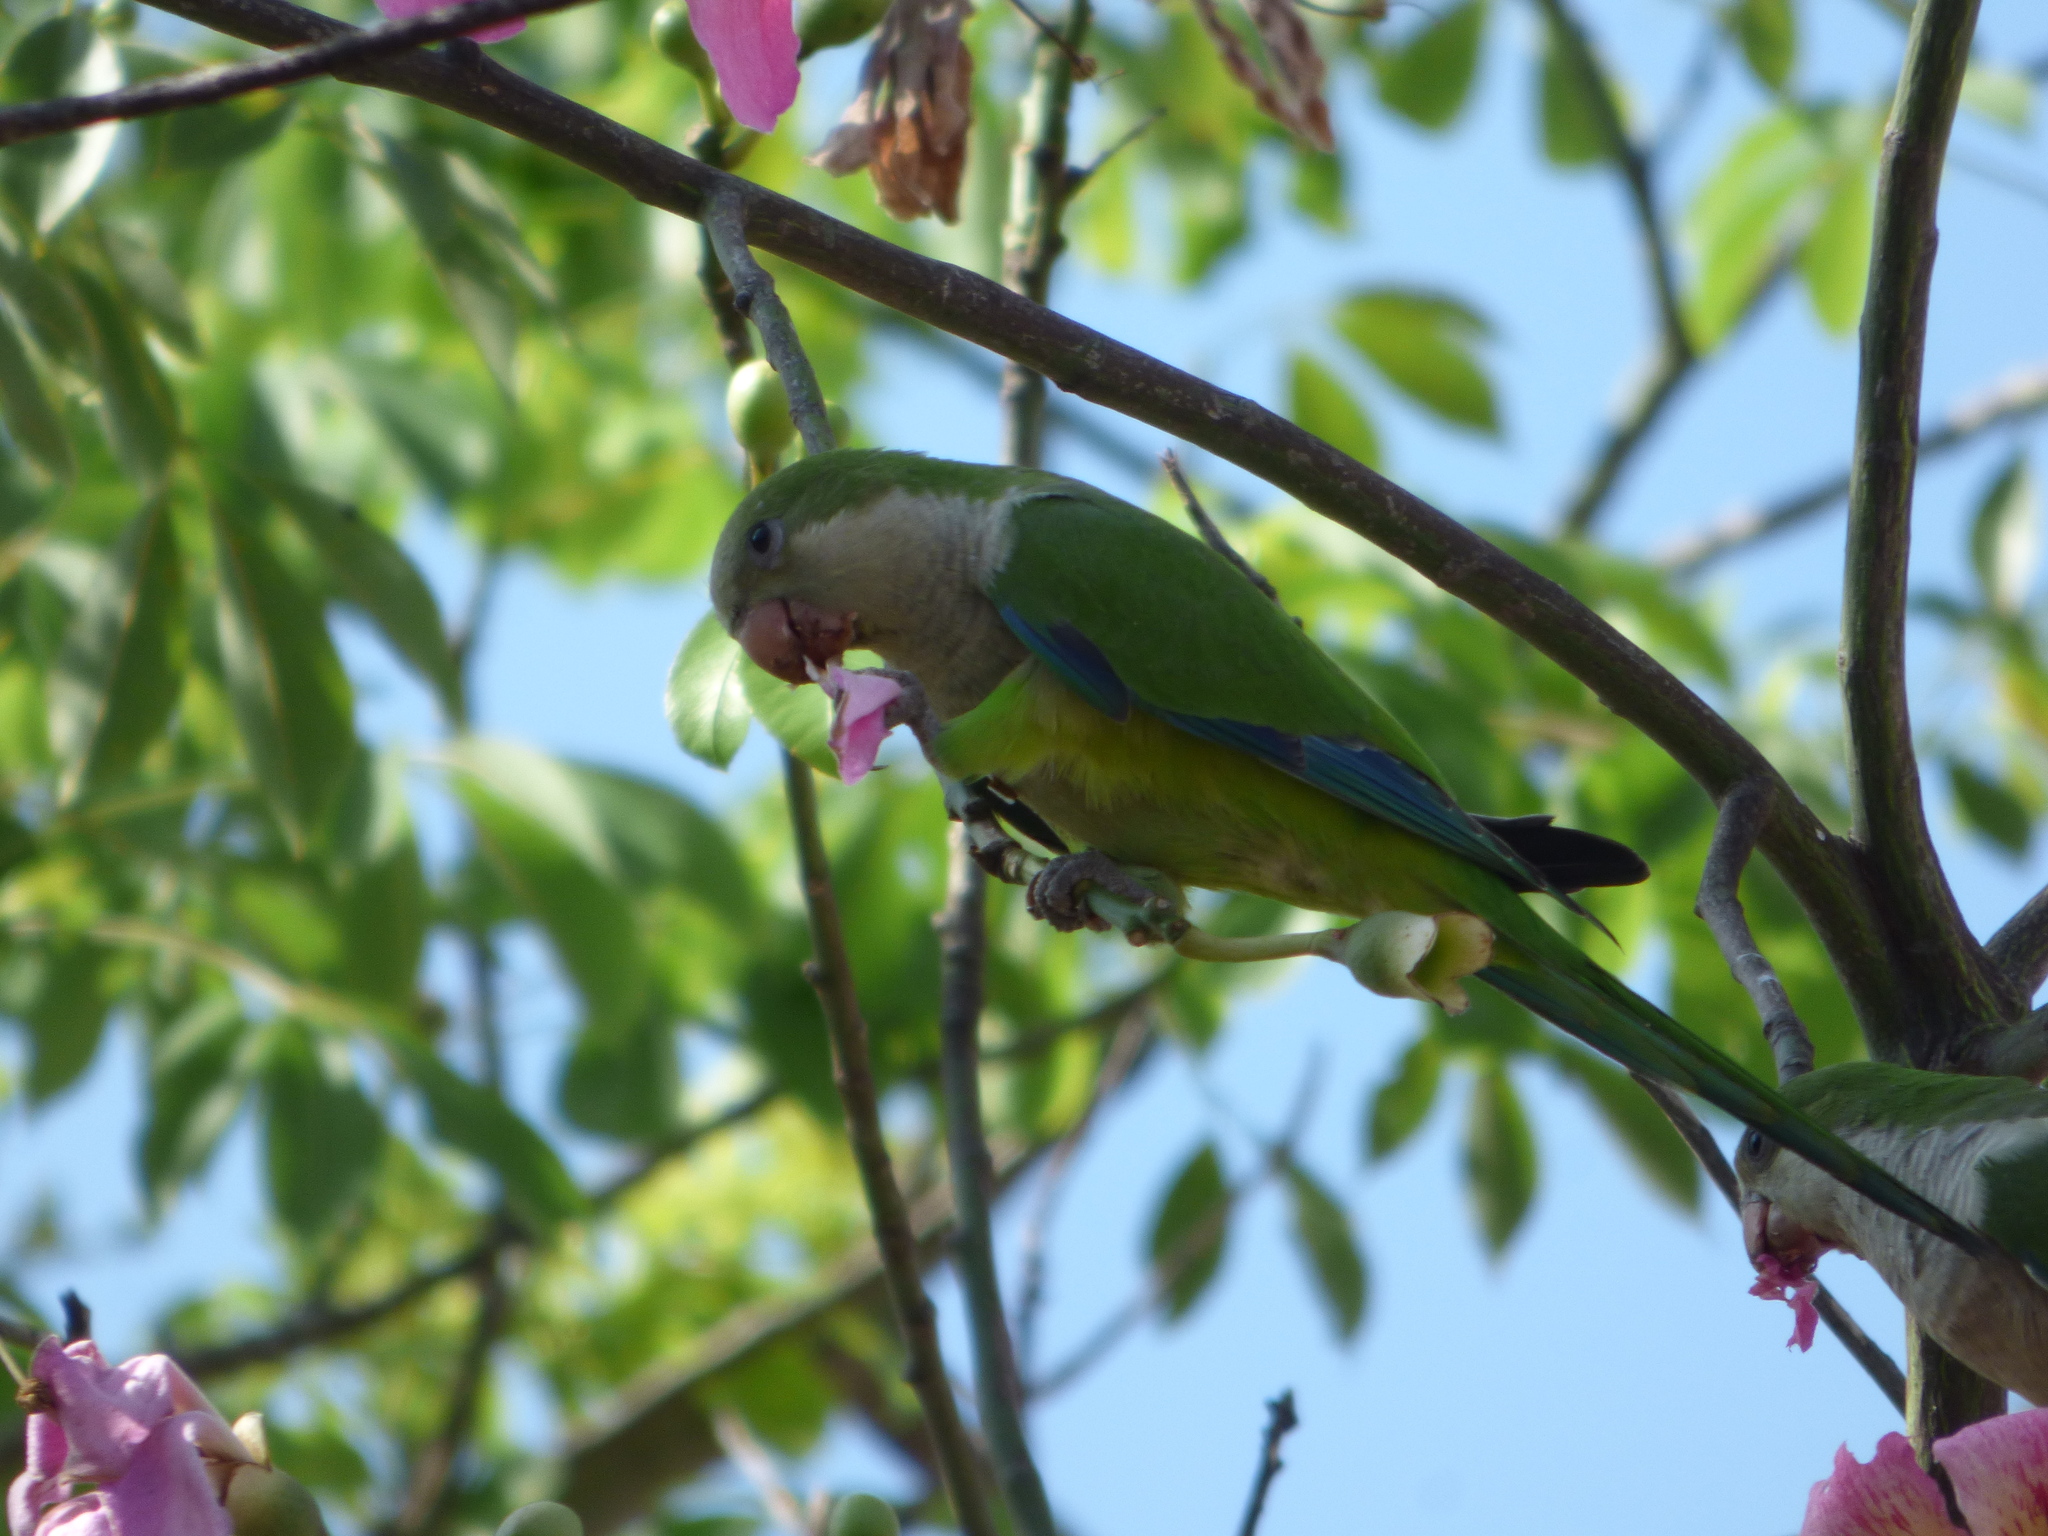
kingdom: Animalia
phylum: Chordata
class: Aves
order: Psittaciformes
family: Psittacidae
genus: Myiopsitta
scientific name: Myiopsitta monachus
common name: Monk parakeet
